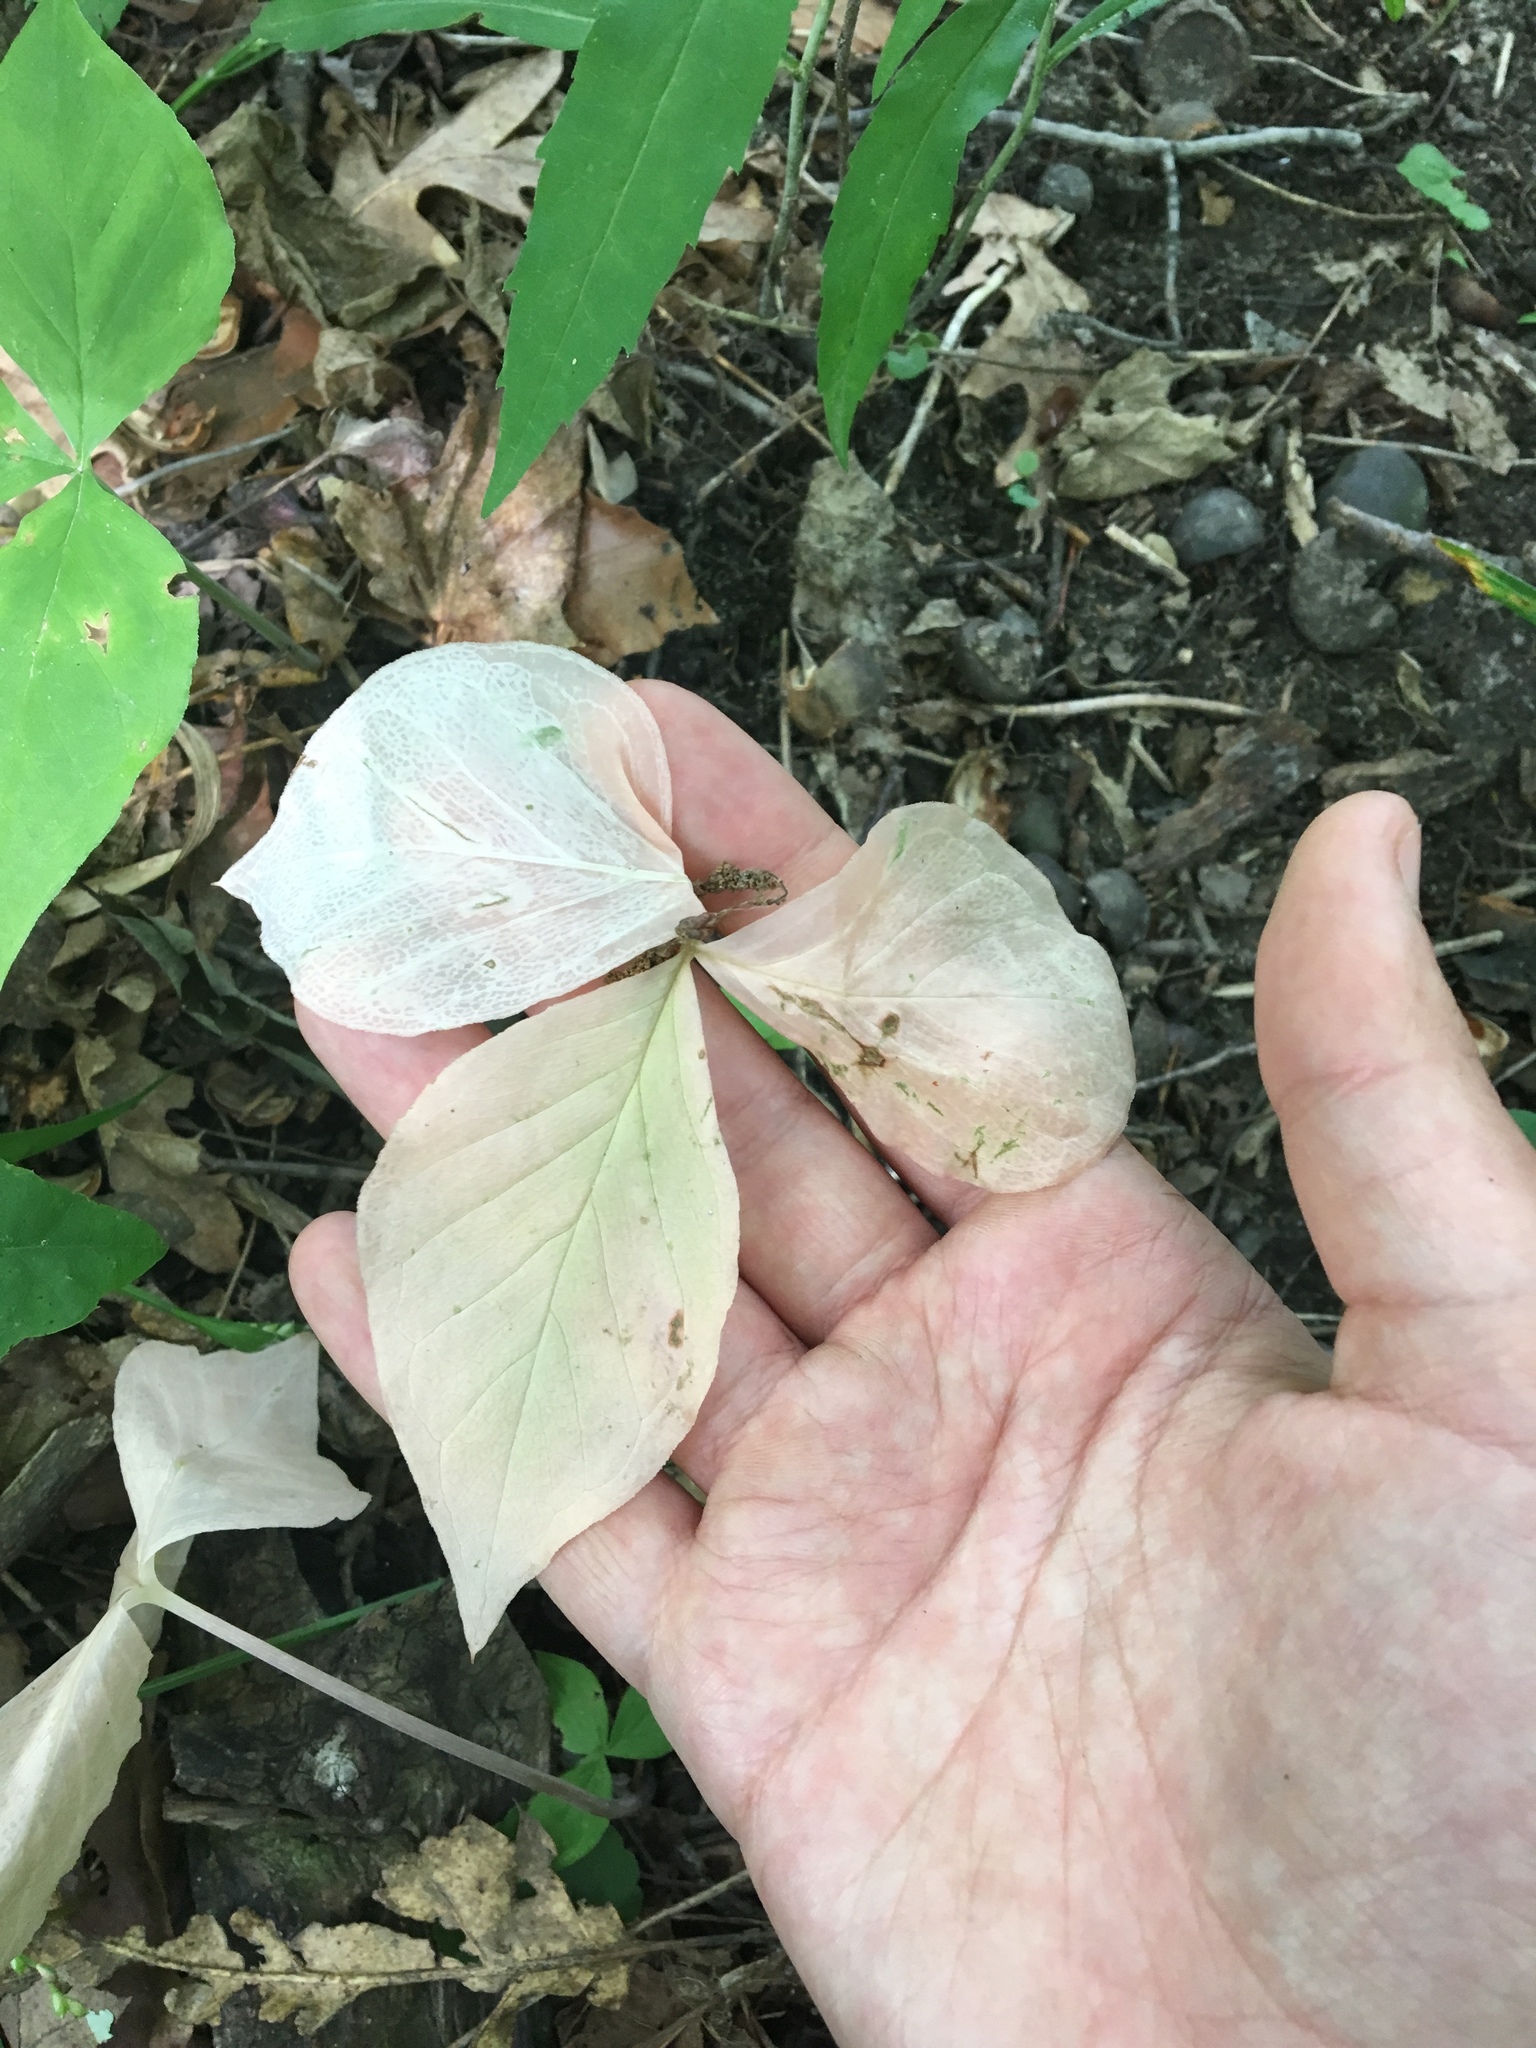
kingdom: Plantae
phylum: Tracheophyta
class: Liliopsida
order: Alismatales
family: Araceae
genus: Arisaema
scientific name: Arisaema triphyllum
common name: Jack-in-the-pulpit
